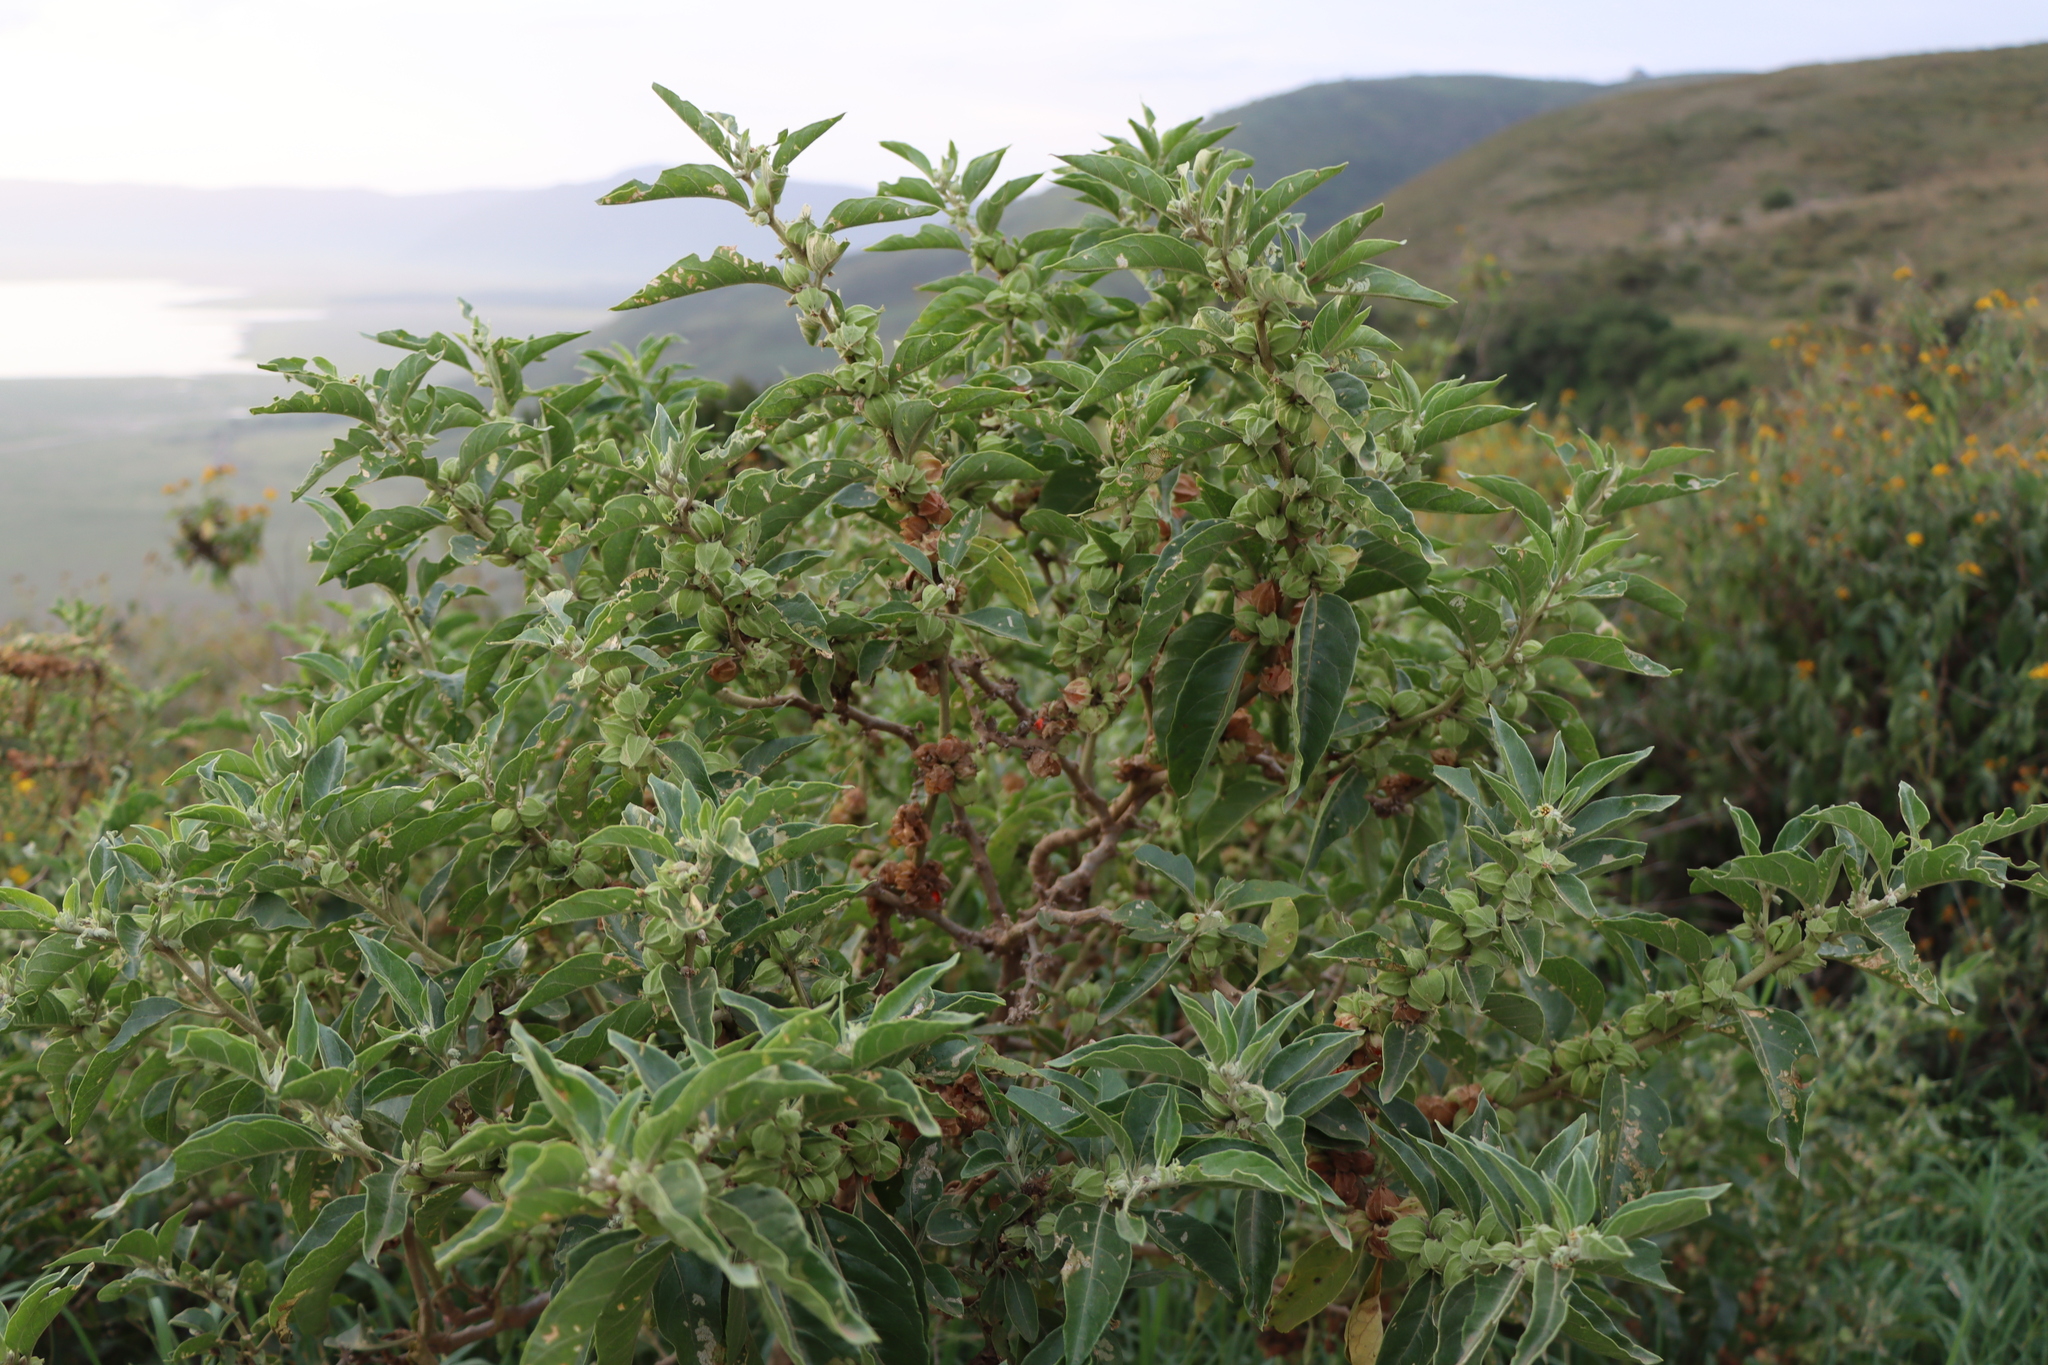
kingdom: Plantae
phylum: Tracheophyta
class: Magnoliopsida
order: Solanales
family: Solanaceae
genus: Withania
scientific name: Withania somnifera
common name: Winter-cherry
